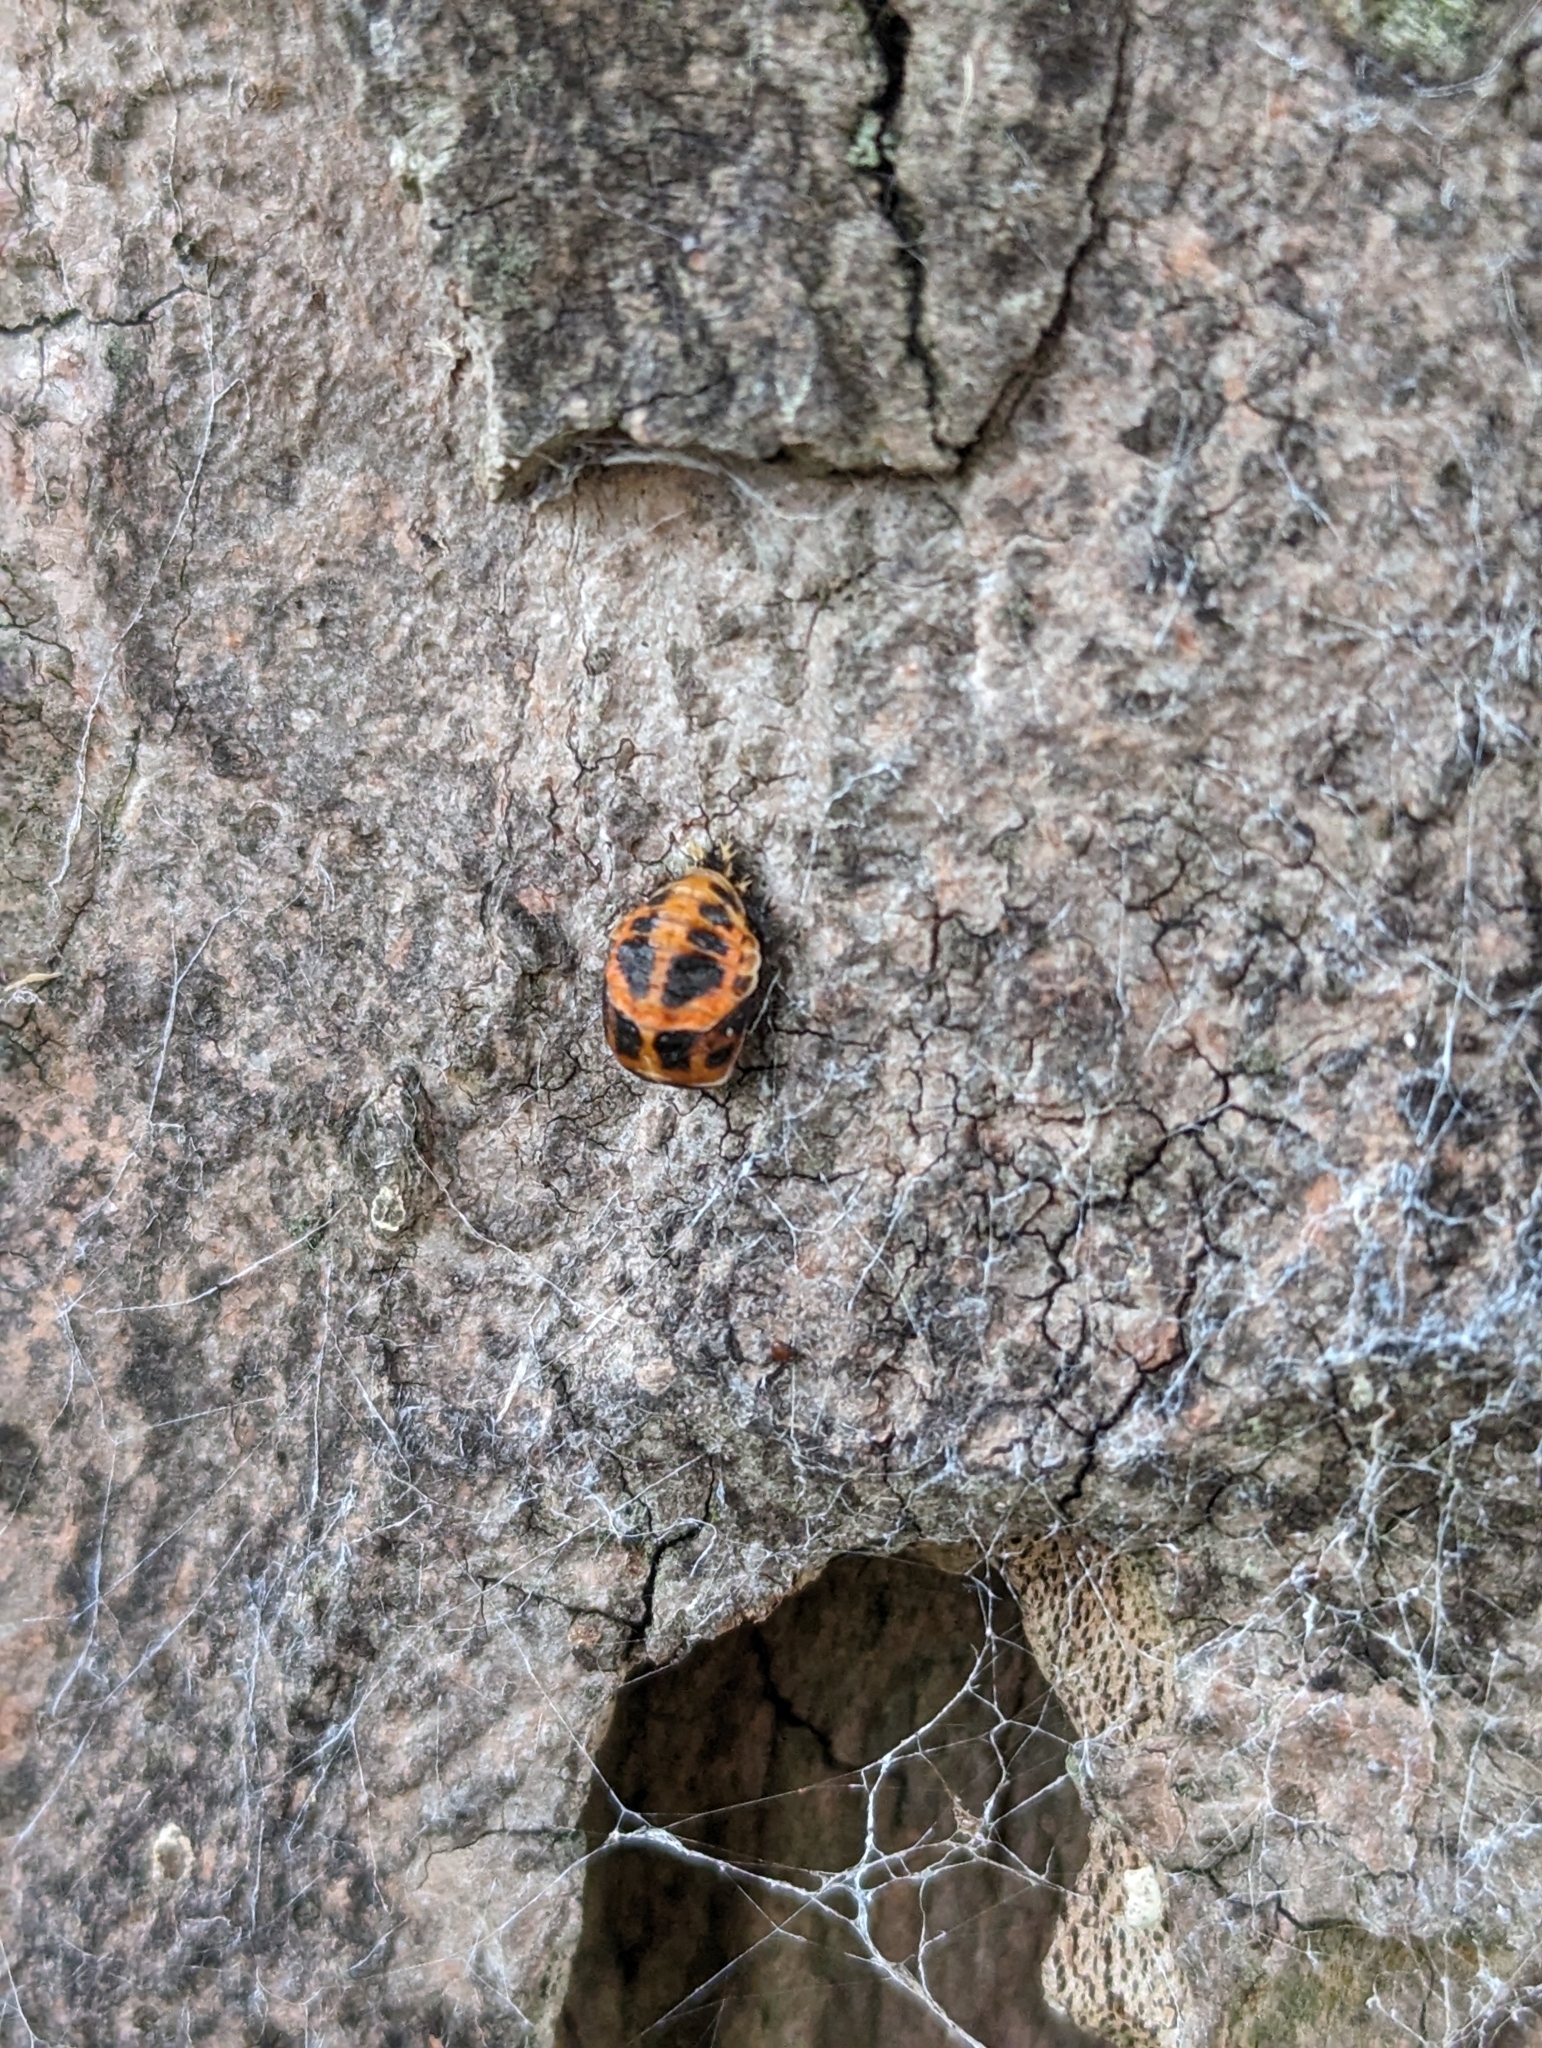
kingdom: Animalia
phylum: Arthropoda
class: Insecta
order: Coleoptera
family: Coccinellidae
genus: Harmonia
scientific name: Harmonia axyridis
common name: Harlequin ladybird
